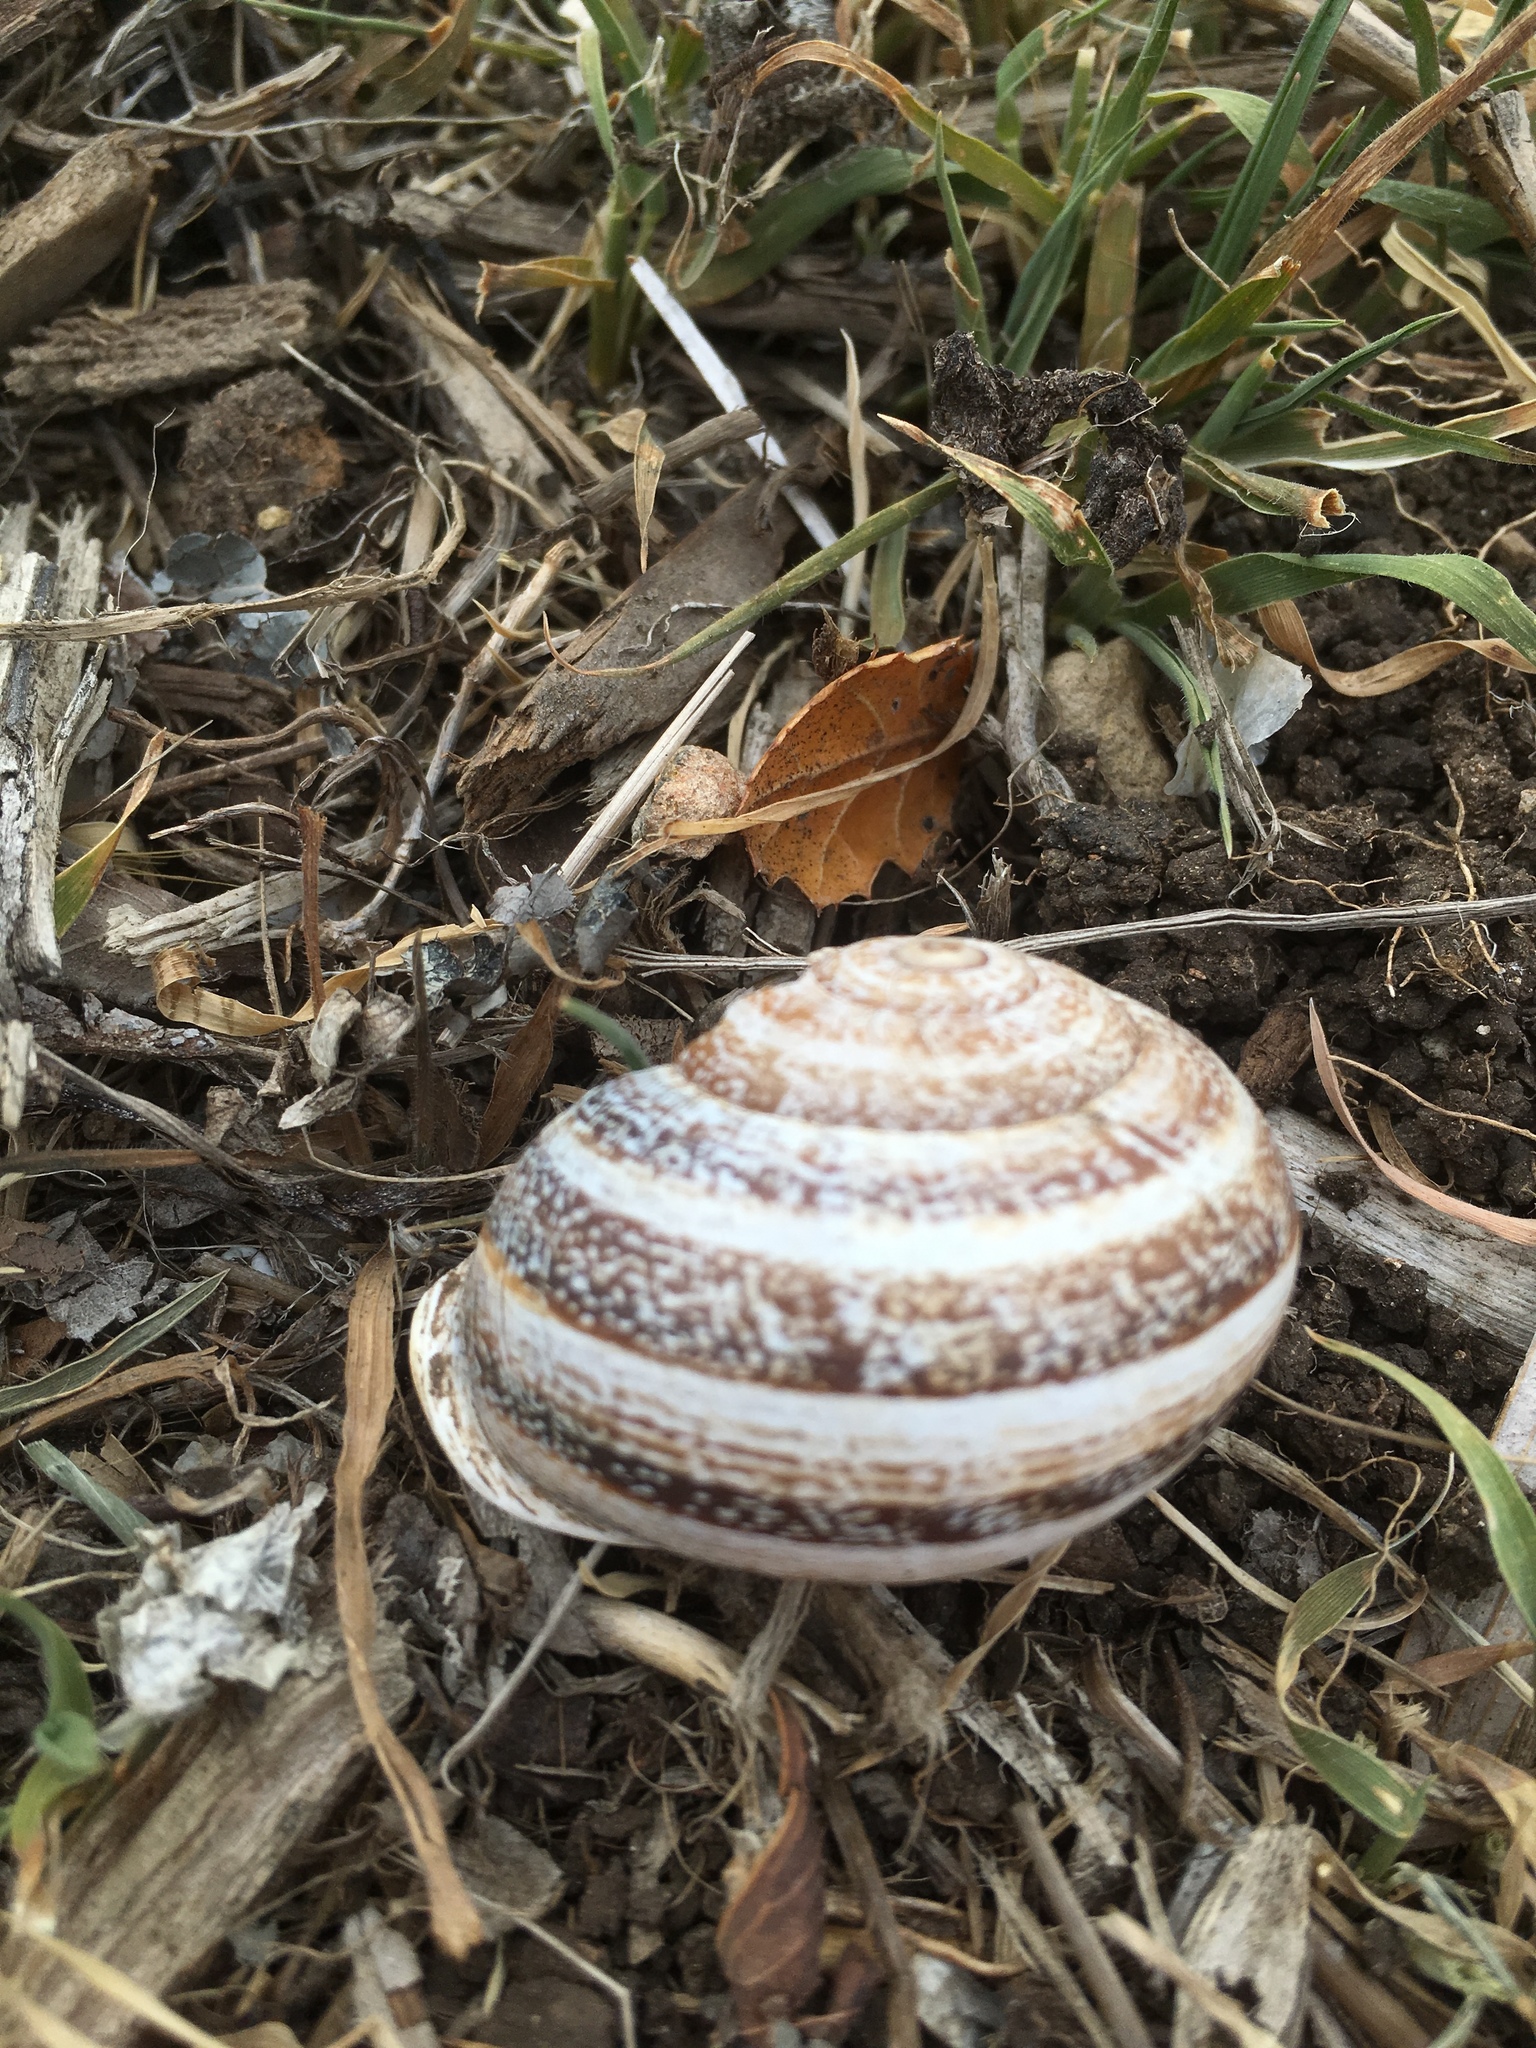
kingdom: Animalia
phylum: Mollusca
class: Gastropoda
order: Stylommatophora
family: Helicidae
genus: Otala
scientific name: Otala lactea
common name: Milk snail
